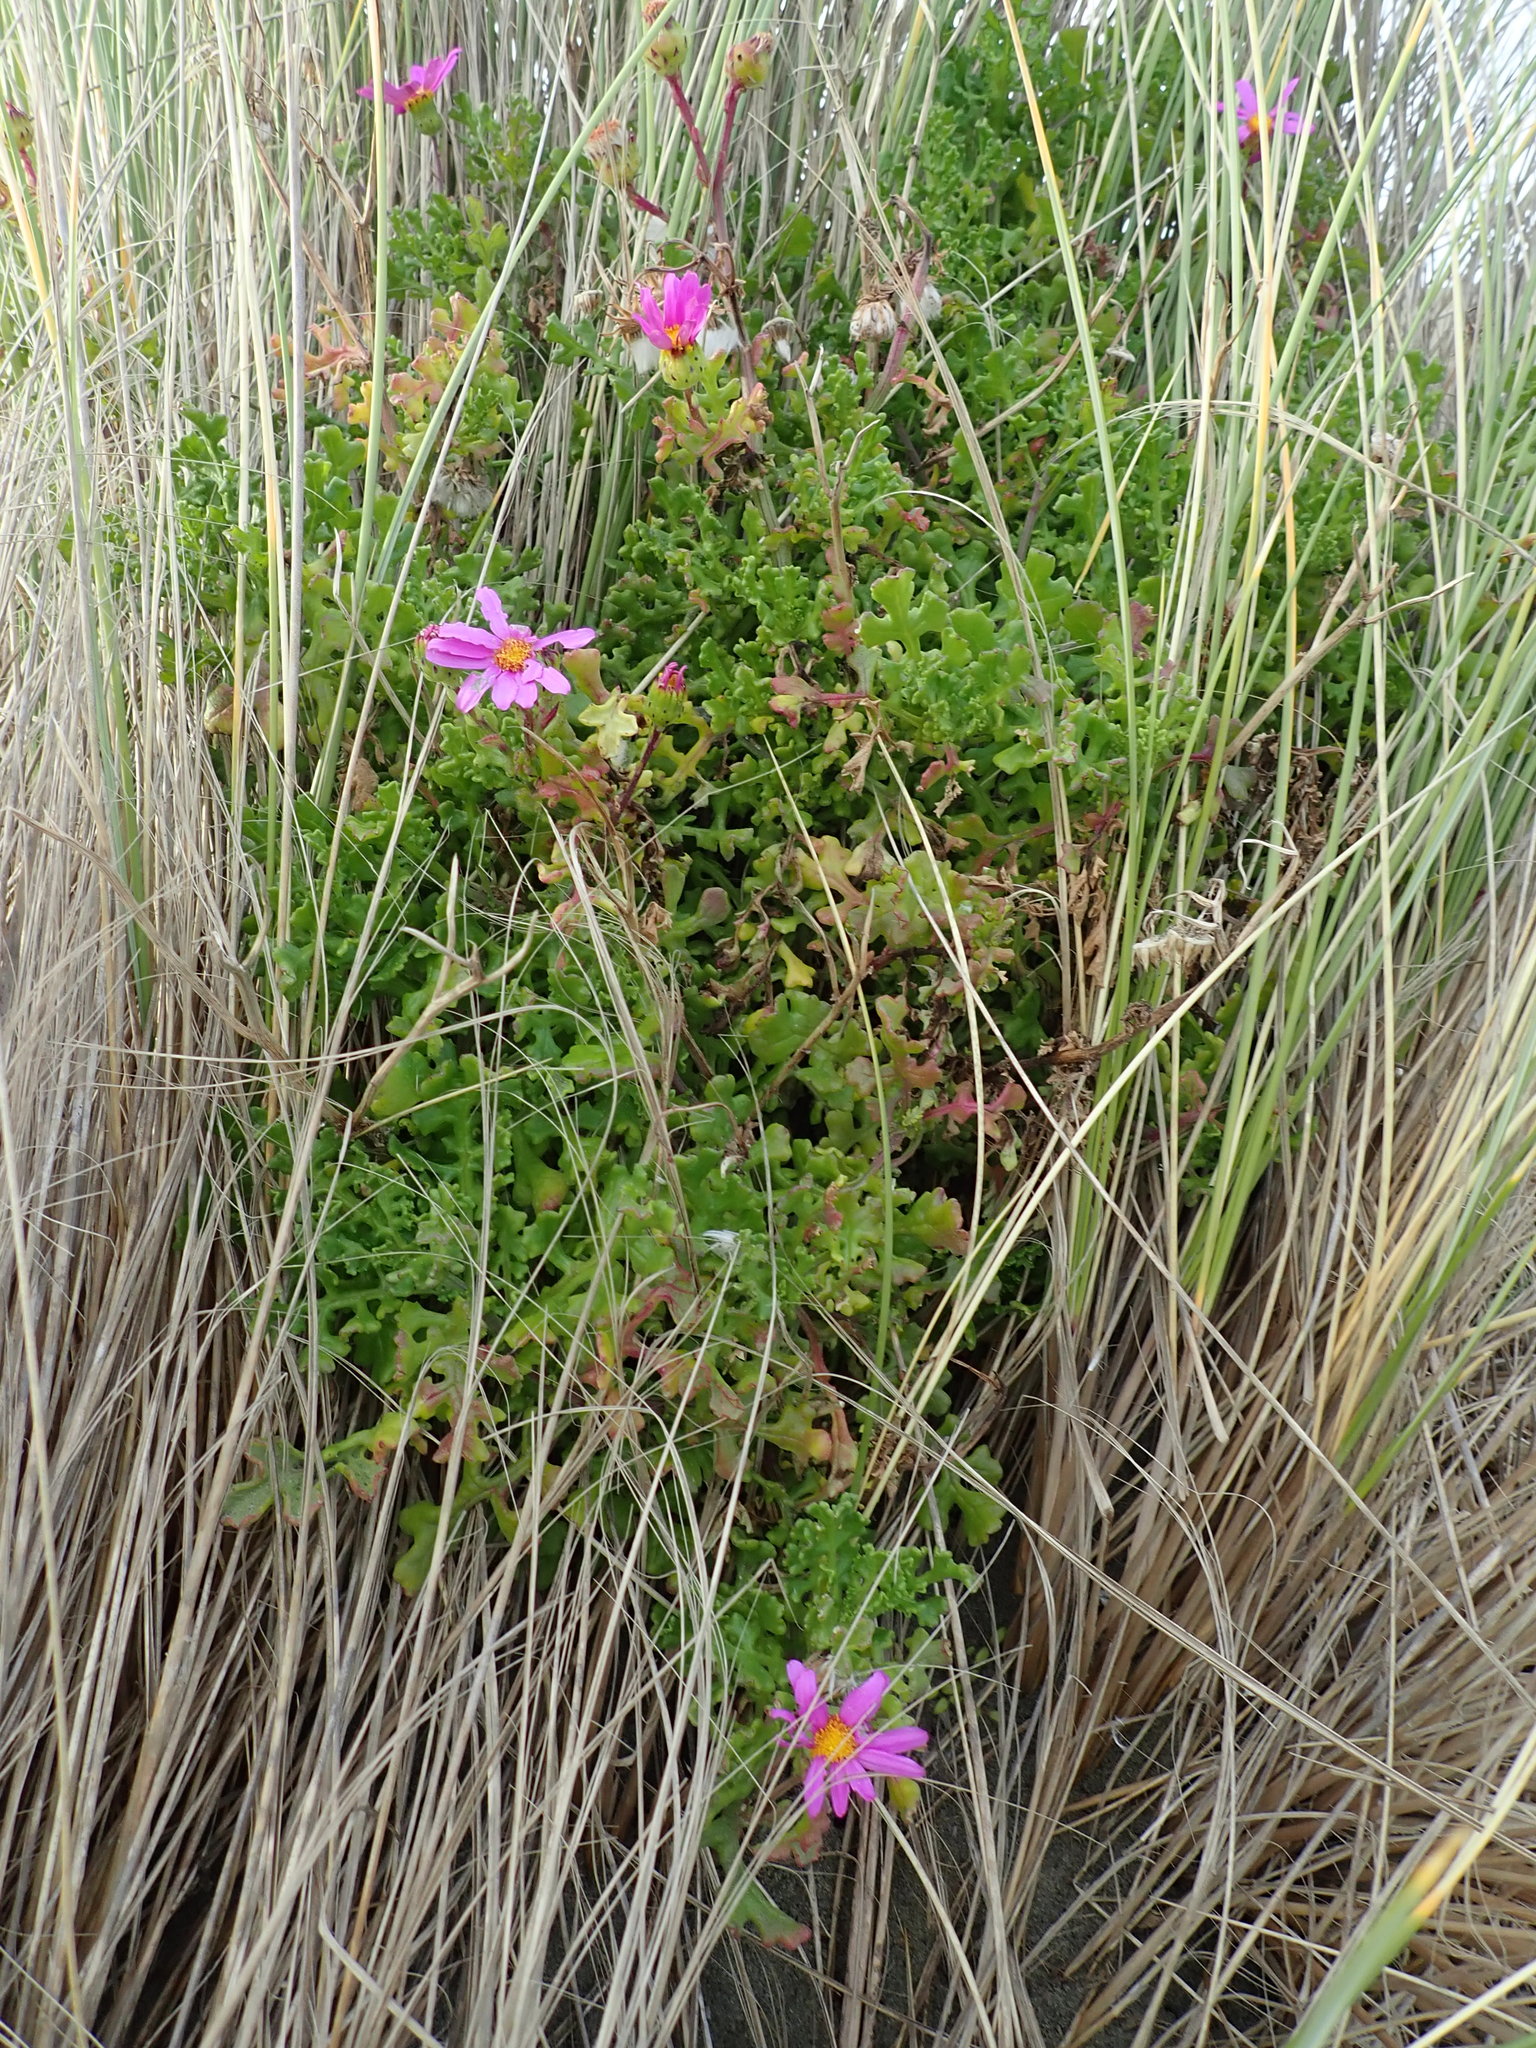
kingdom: Plantae
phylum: Tracheophyta
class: Magnoliopsida
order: Asterales
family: Asteraceae
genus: Senecio
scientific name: Senecio elegans
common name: Purple groundsel
